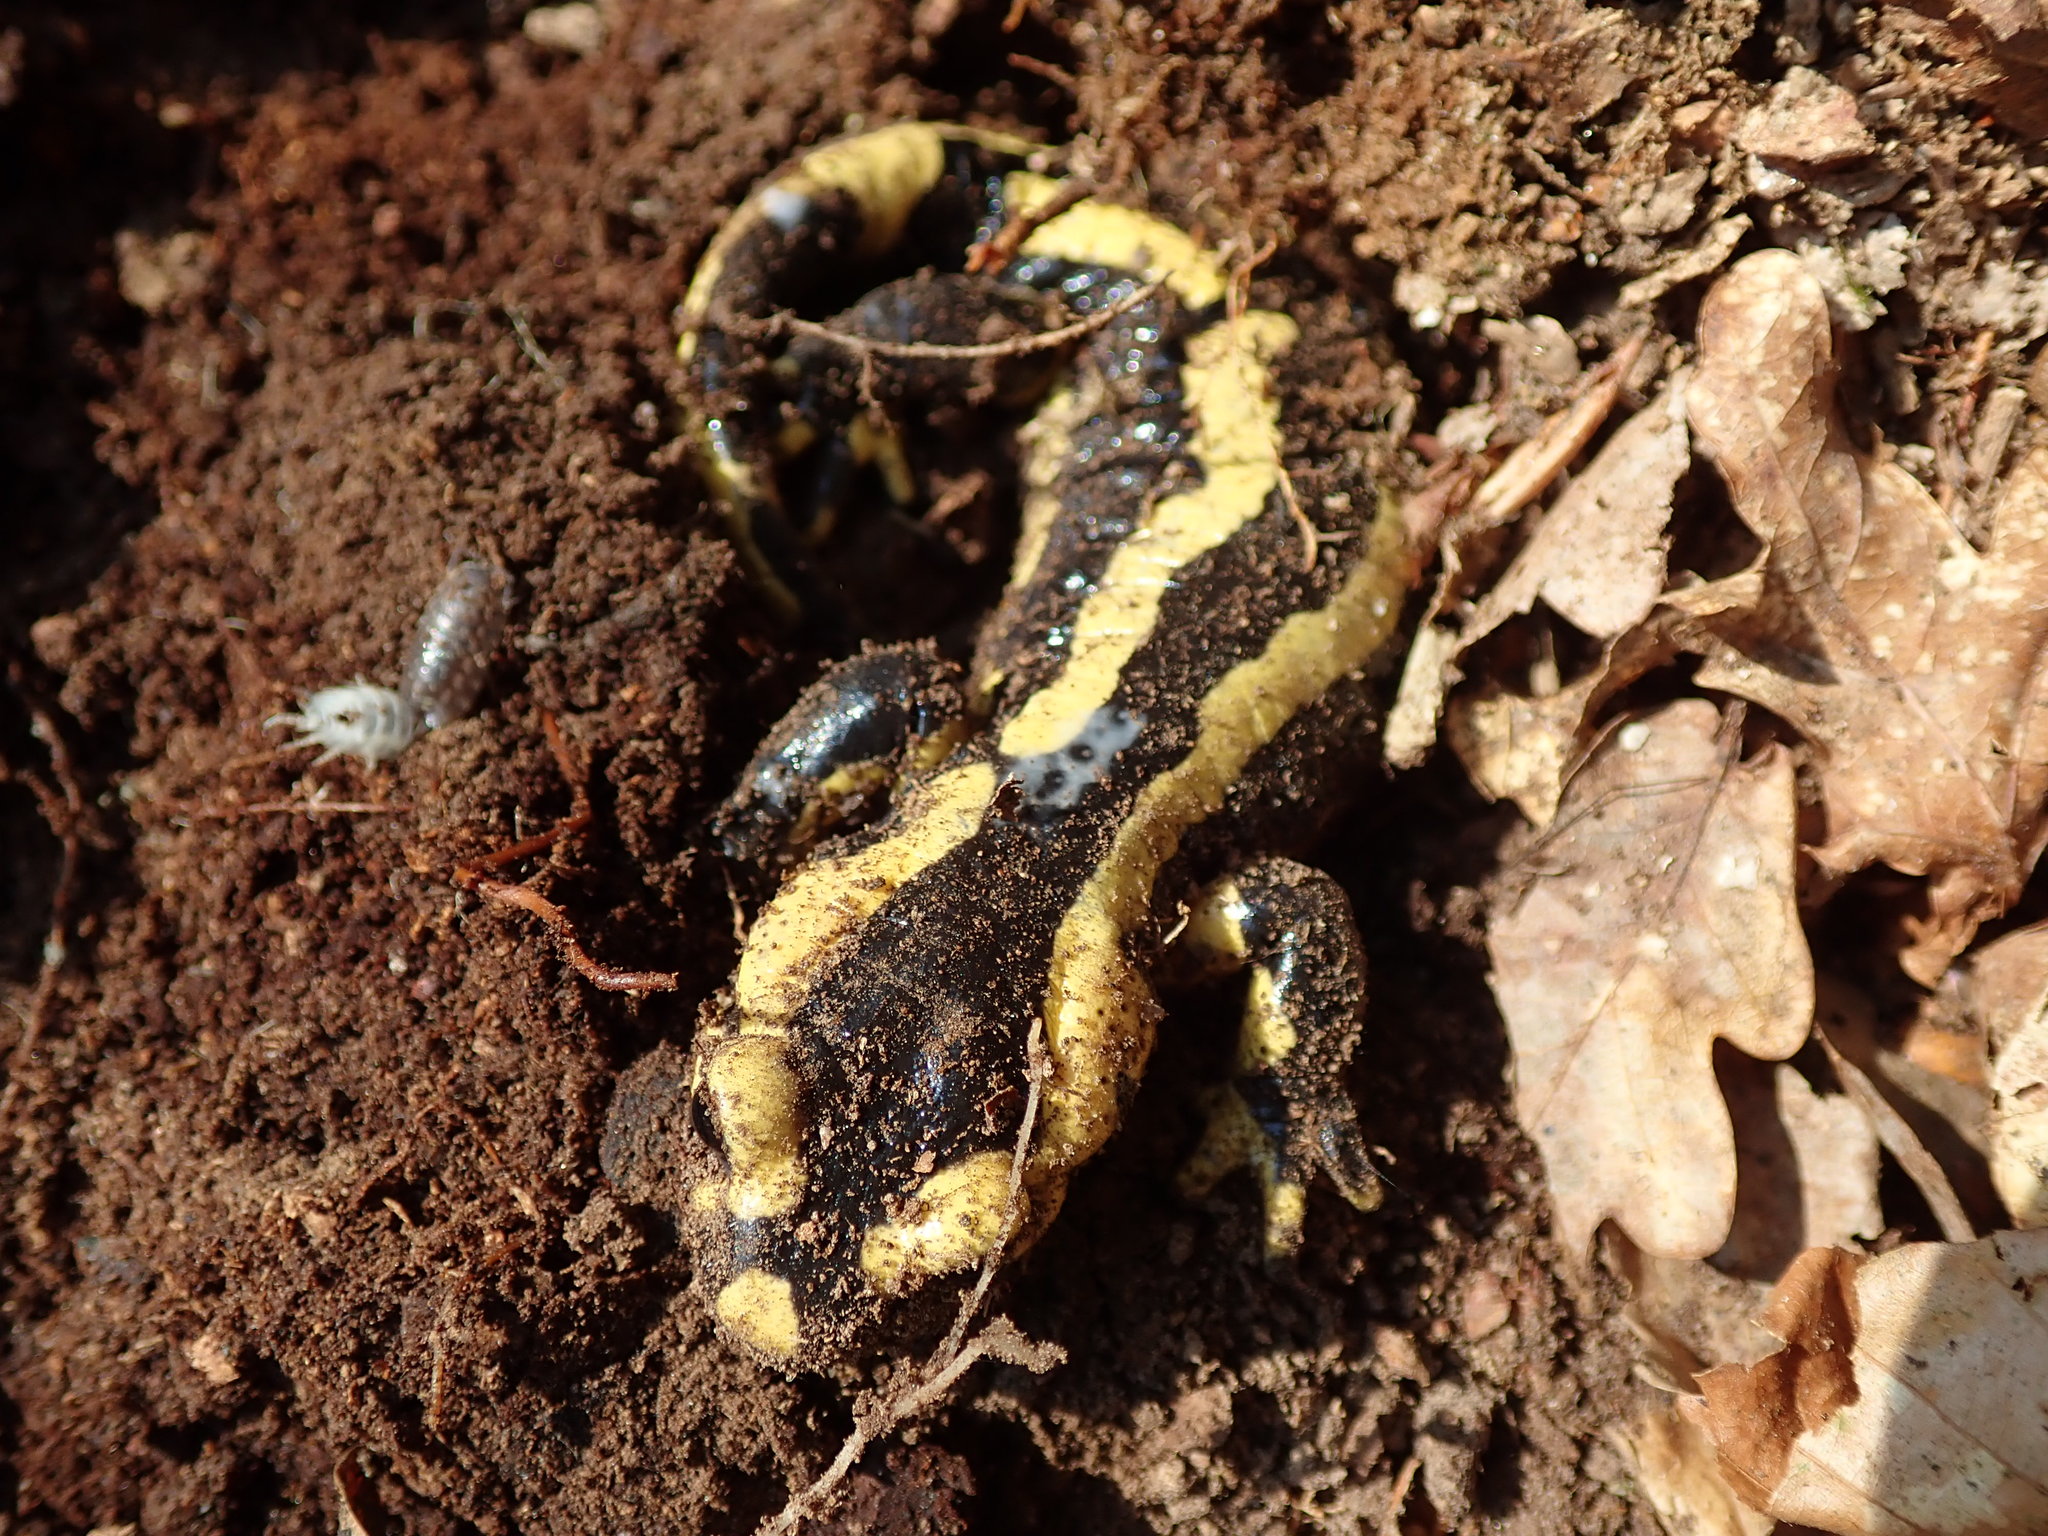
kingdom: Animalia
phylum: Chordata
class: Amphibia
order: Caudata
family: Salamandridae
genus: Salamandra
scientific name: Salamandra salamandra
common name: Fire salamander
